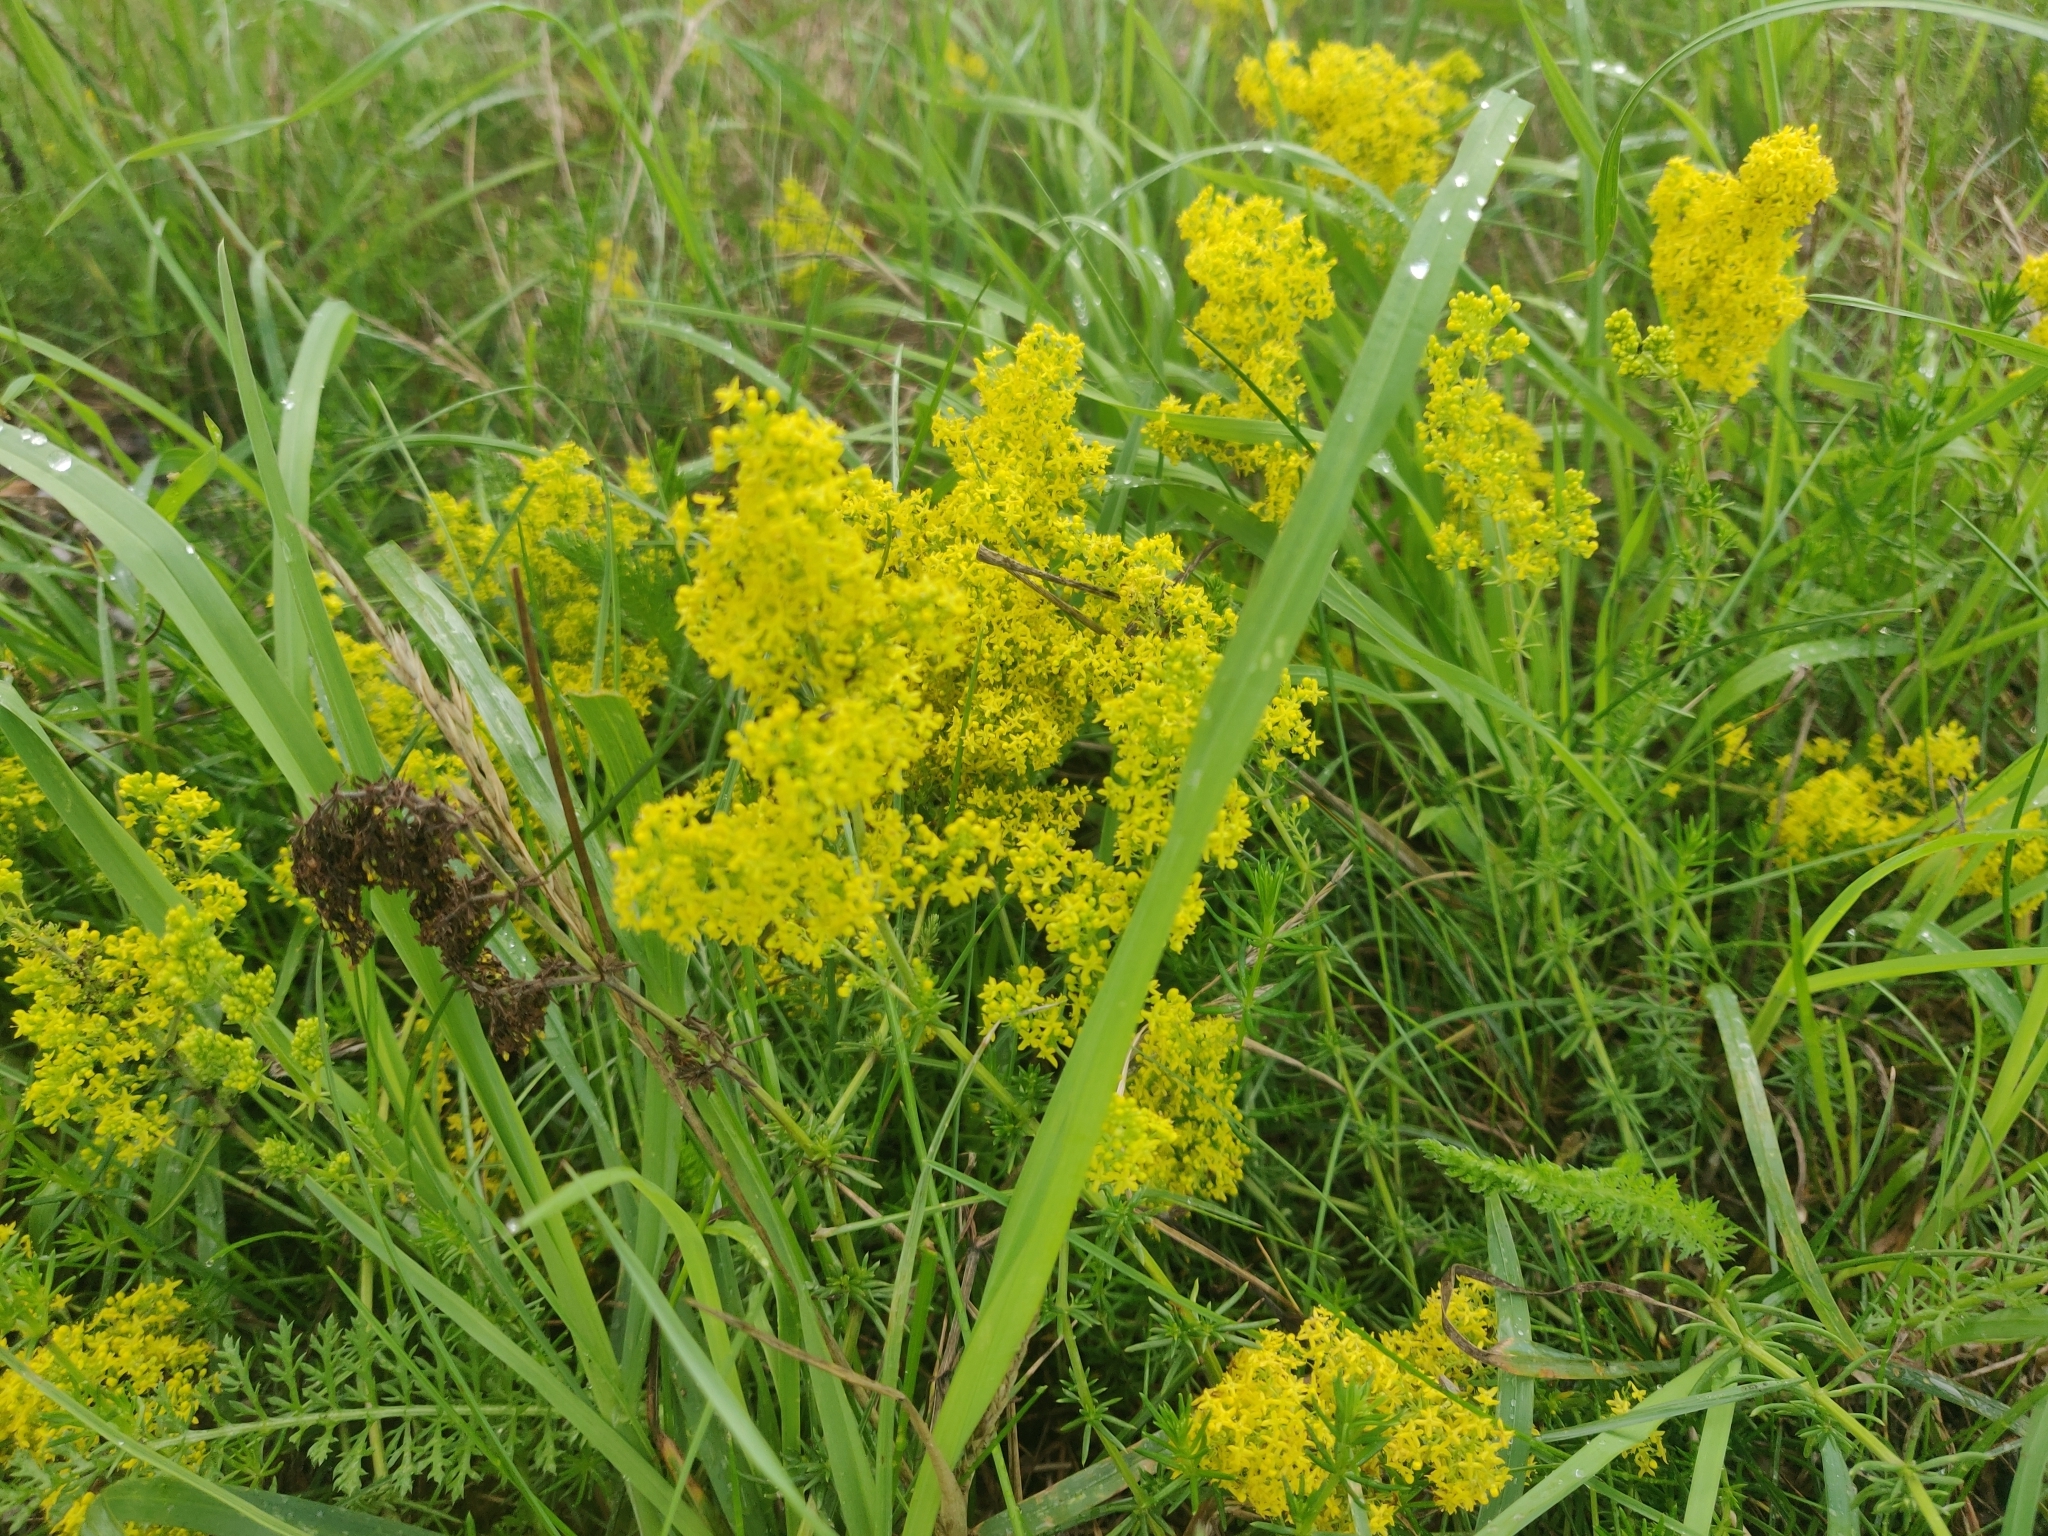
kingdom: Plantae
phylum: Tracheophyta
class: Magnoliopsida
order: Gentianales
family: Rubiaceae
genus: Galium
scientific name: Galium verum
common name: Lady's bedstraw
